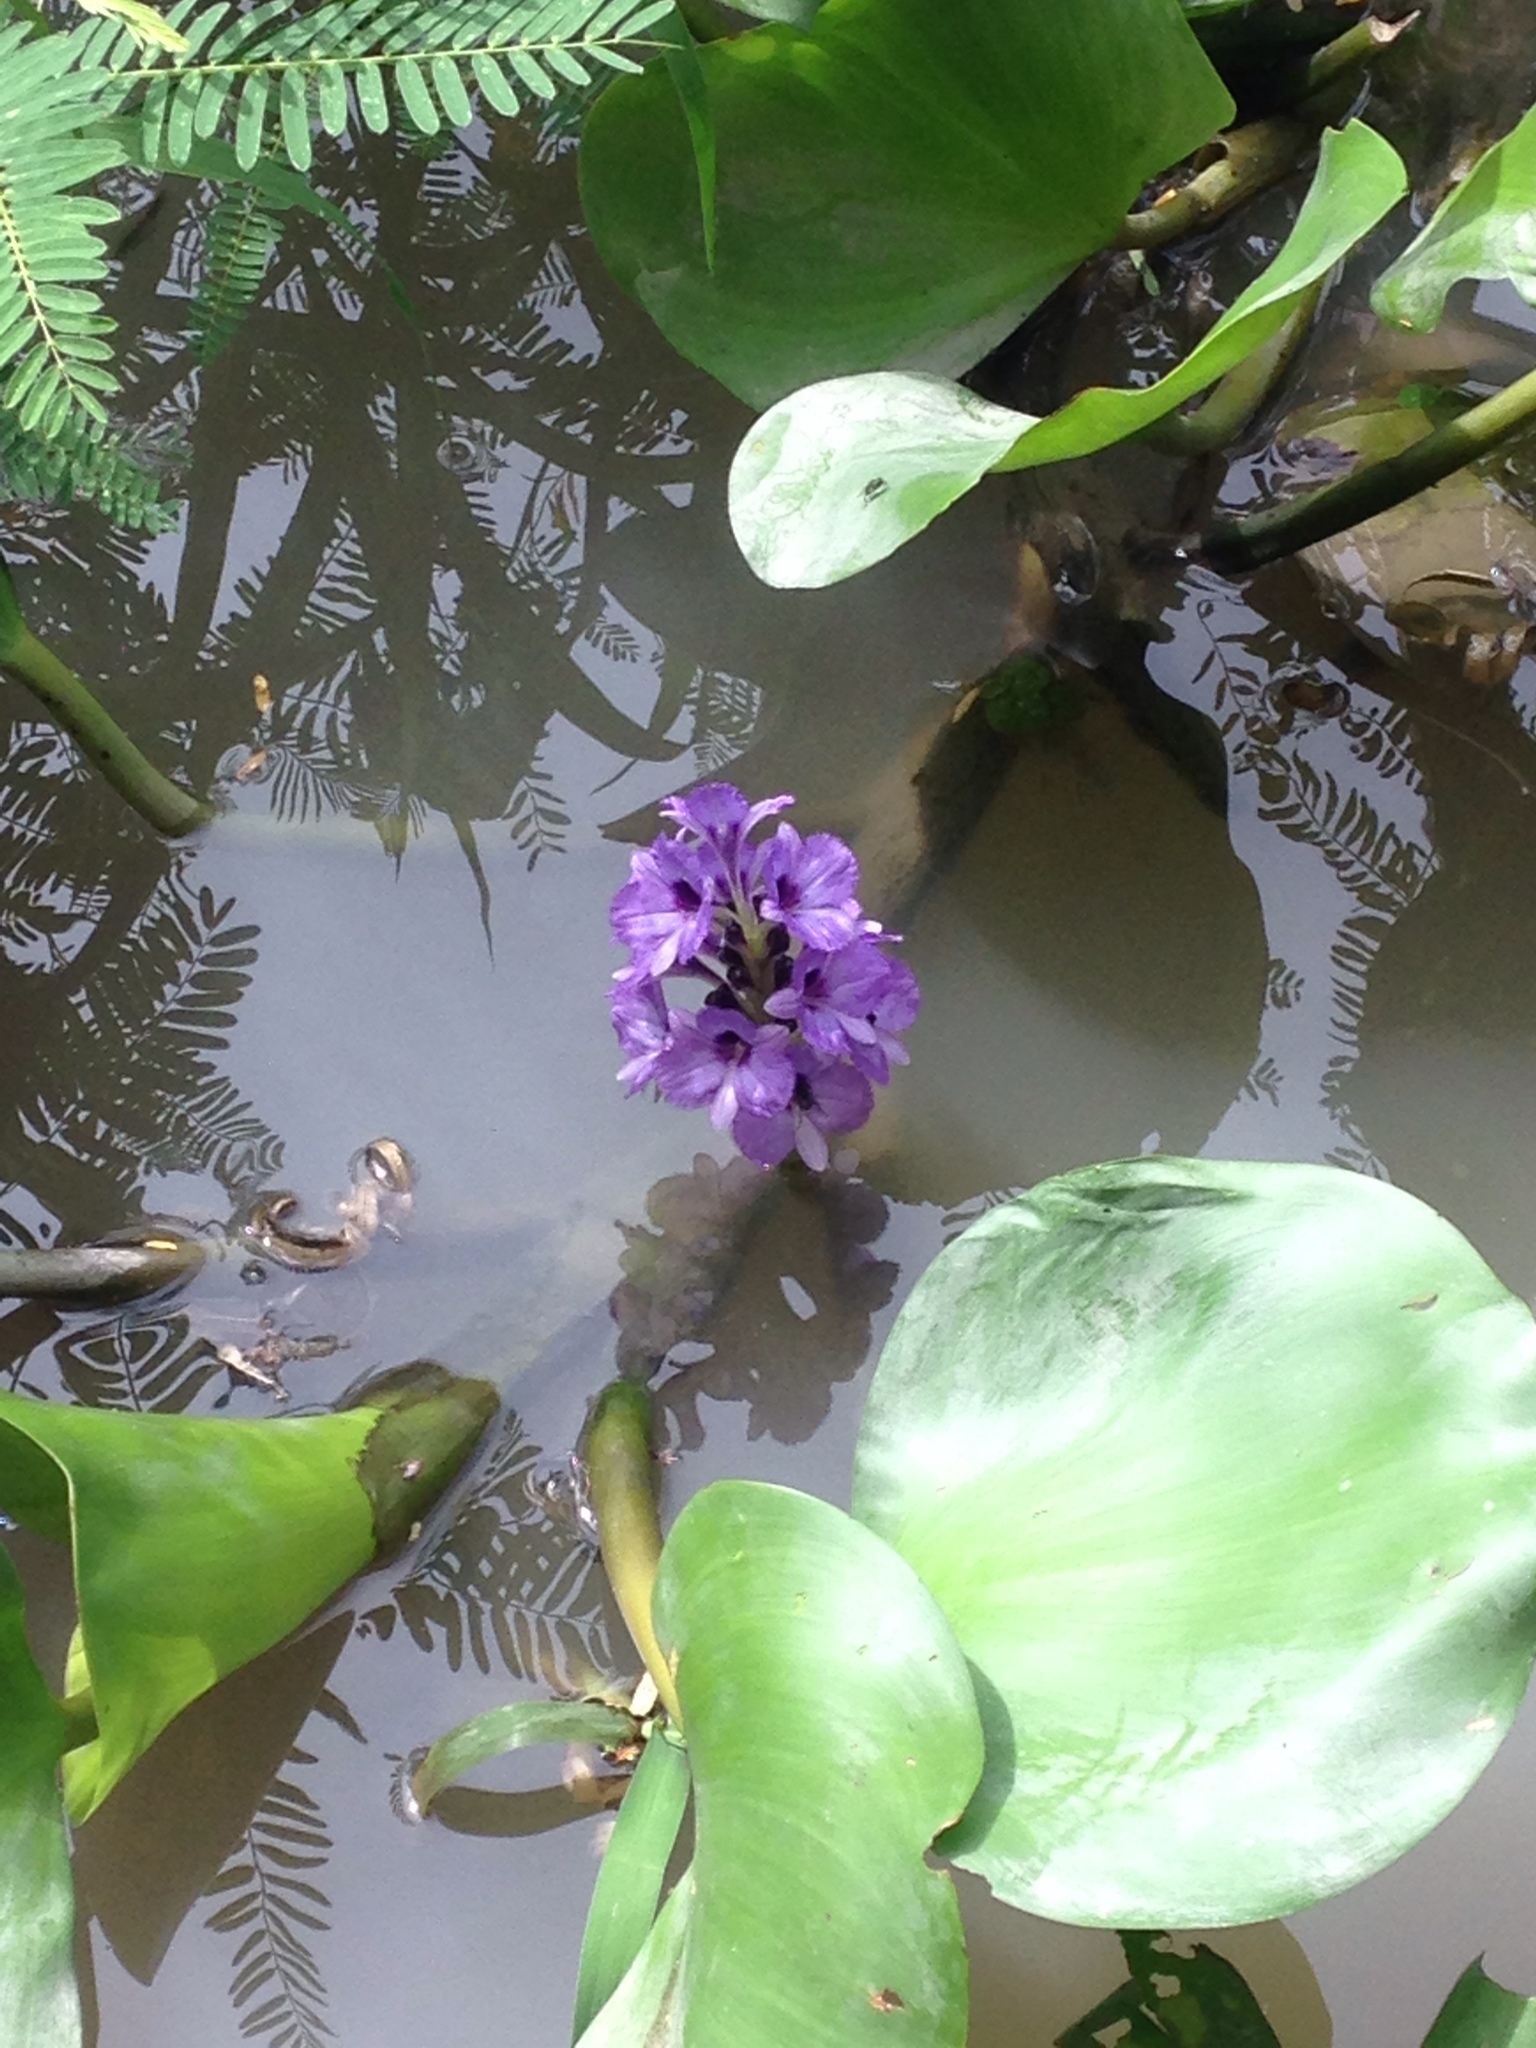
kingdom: Plantae
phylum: Tracheophyta
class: Liliopsida
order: Commelinales
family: Pontederiaceae
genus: Pontederia
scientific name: Pontederia azurea
